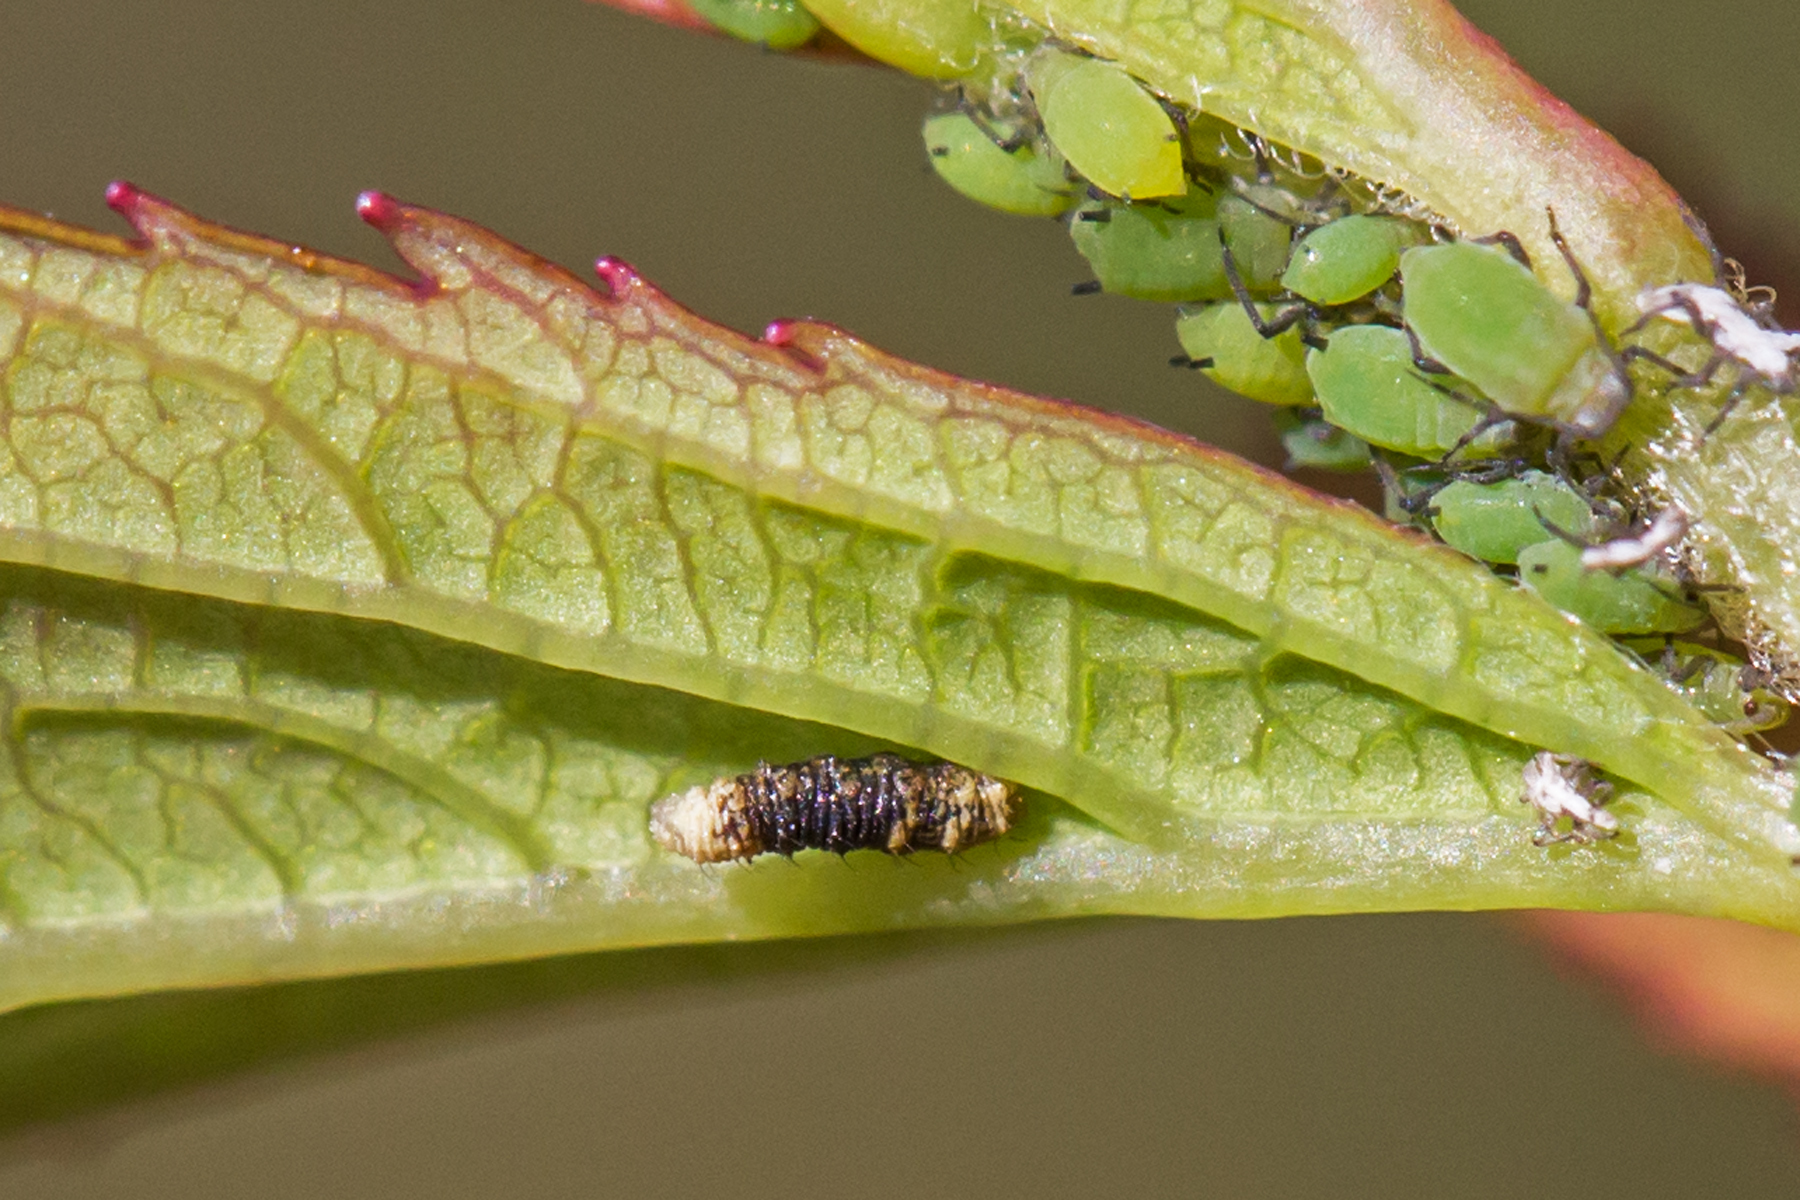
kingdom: Animalia
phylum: Arthropoda
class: Insecta
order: Diptera
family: Syrphidae
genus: Eupeodes
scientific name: Eupeodes
